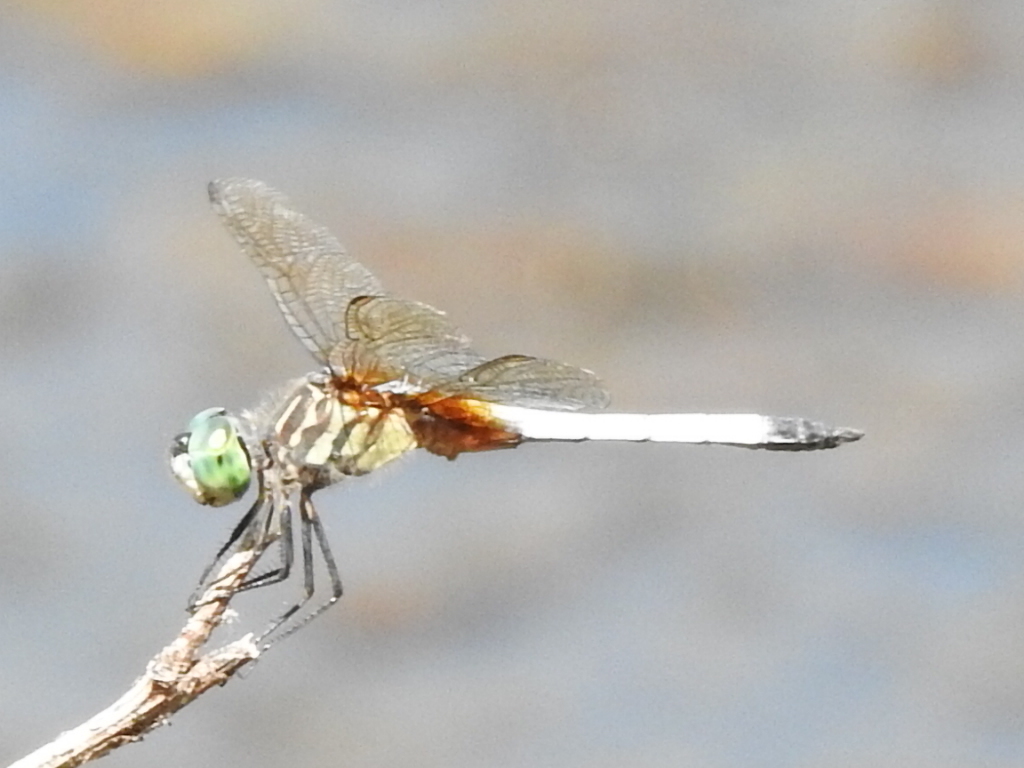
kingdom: Animalia
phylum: Arthropoda
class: Insecta
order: Odonata
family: Libellulidae
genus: Pachydiplax
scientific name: Pachydiplax longipennis
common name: Blue dasher
